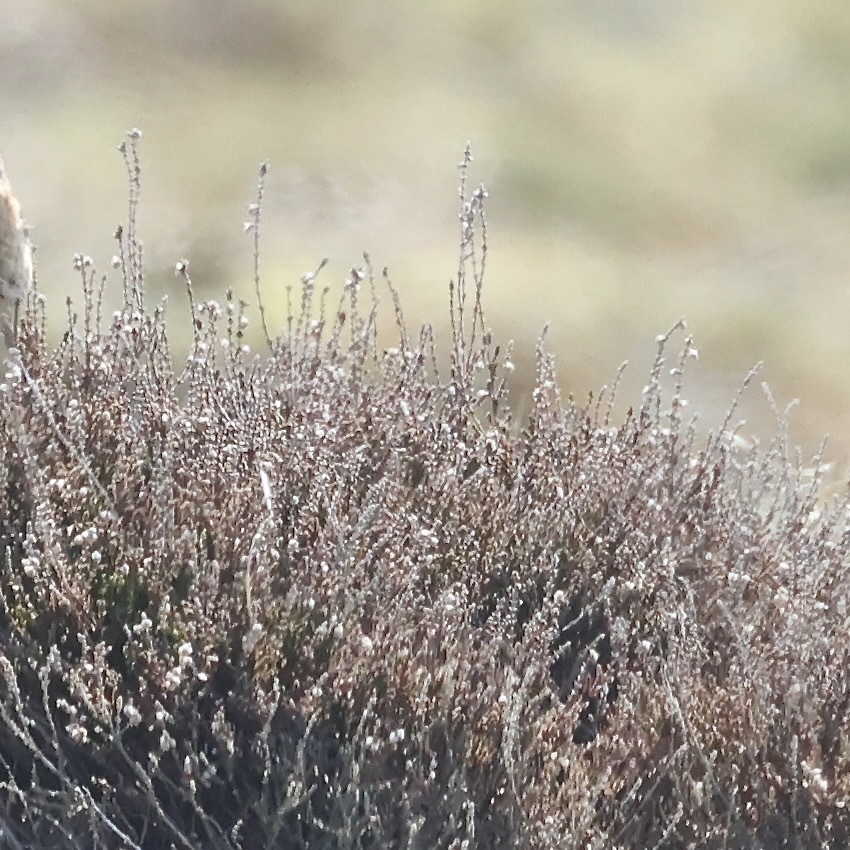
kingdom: Plantae
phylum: Tracheophyta
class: Magnoliopsida
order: Ericales
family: Ericaceae
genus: Calluna
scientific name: Calluna vulgaris
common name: Heather
